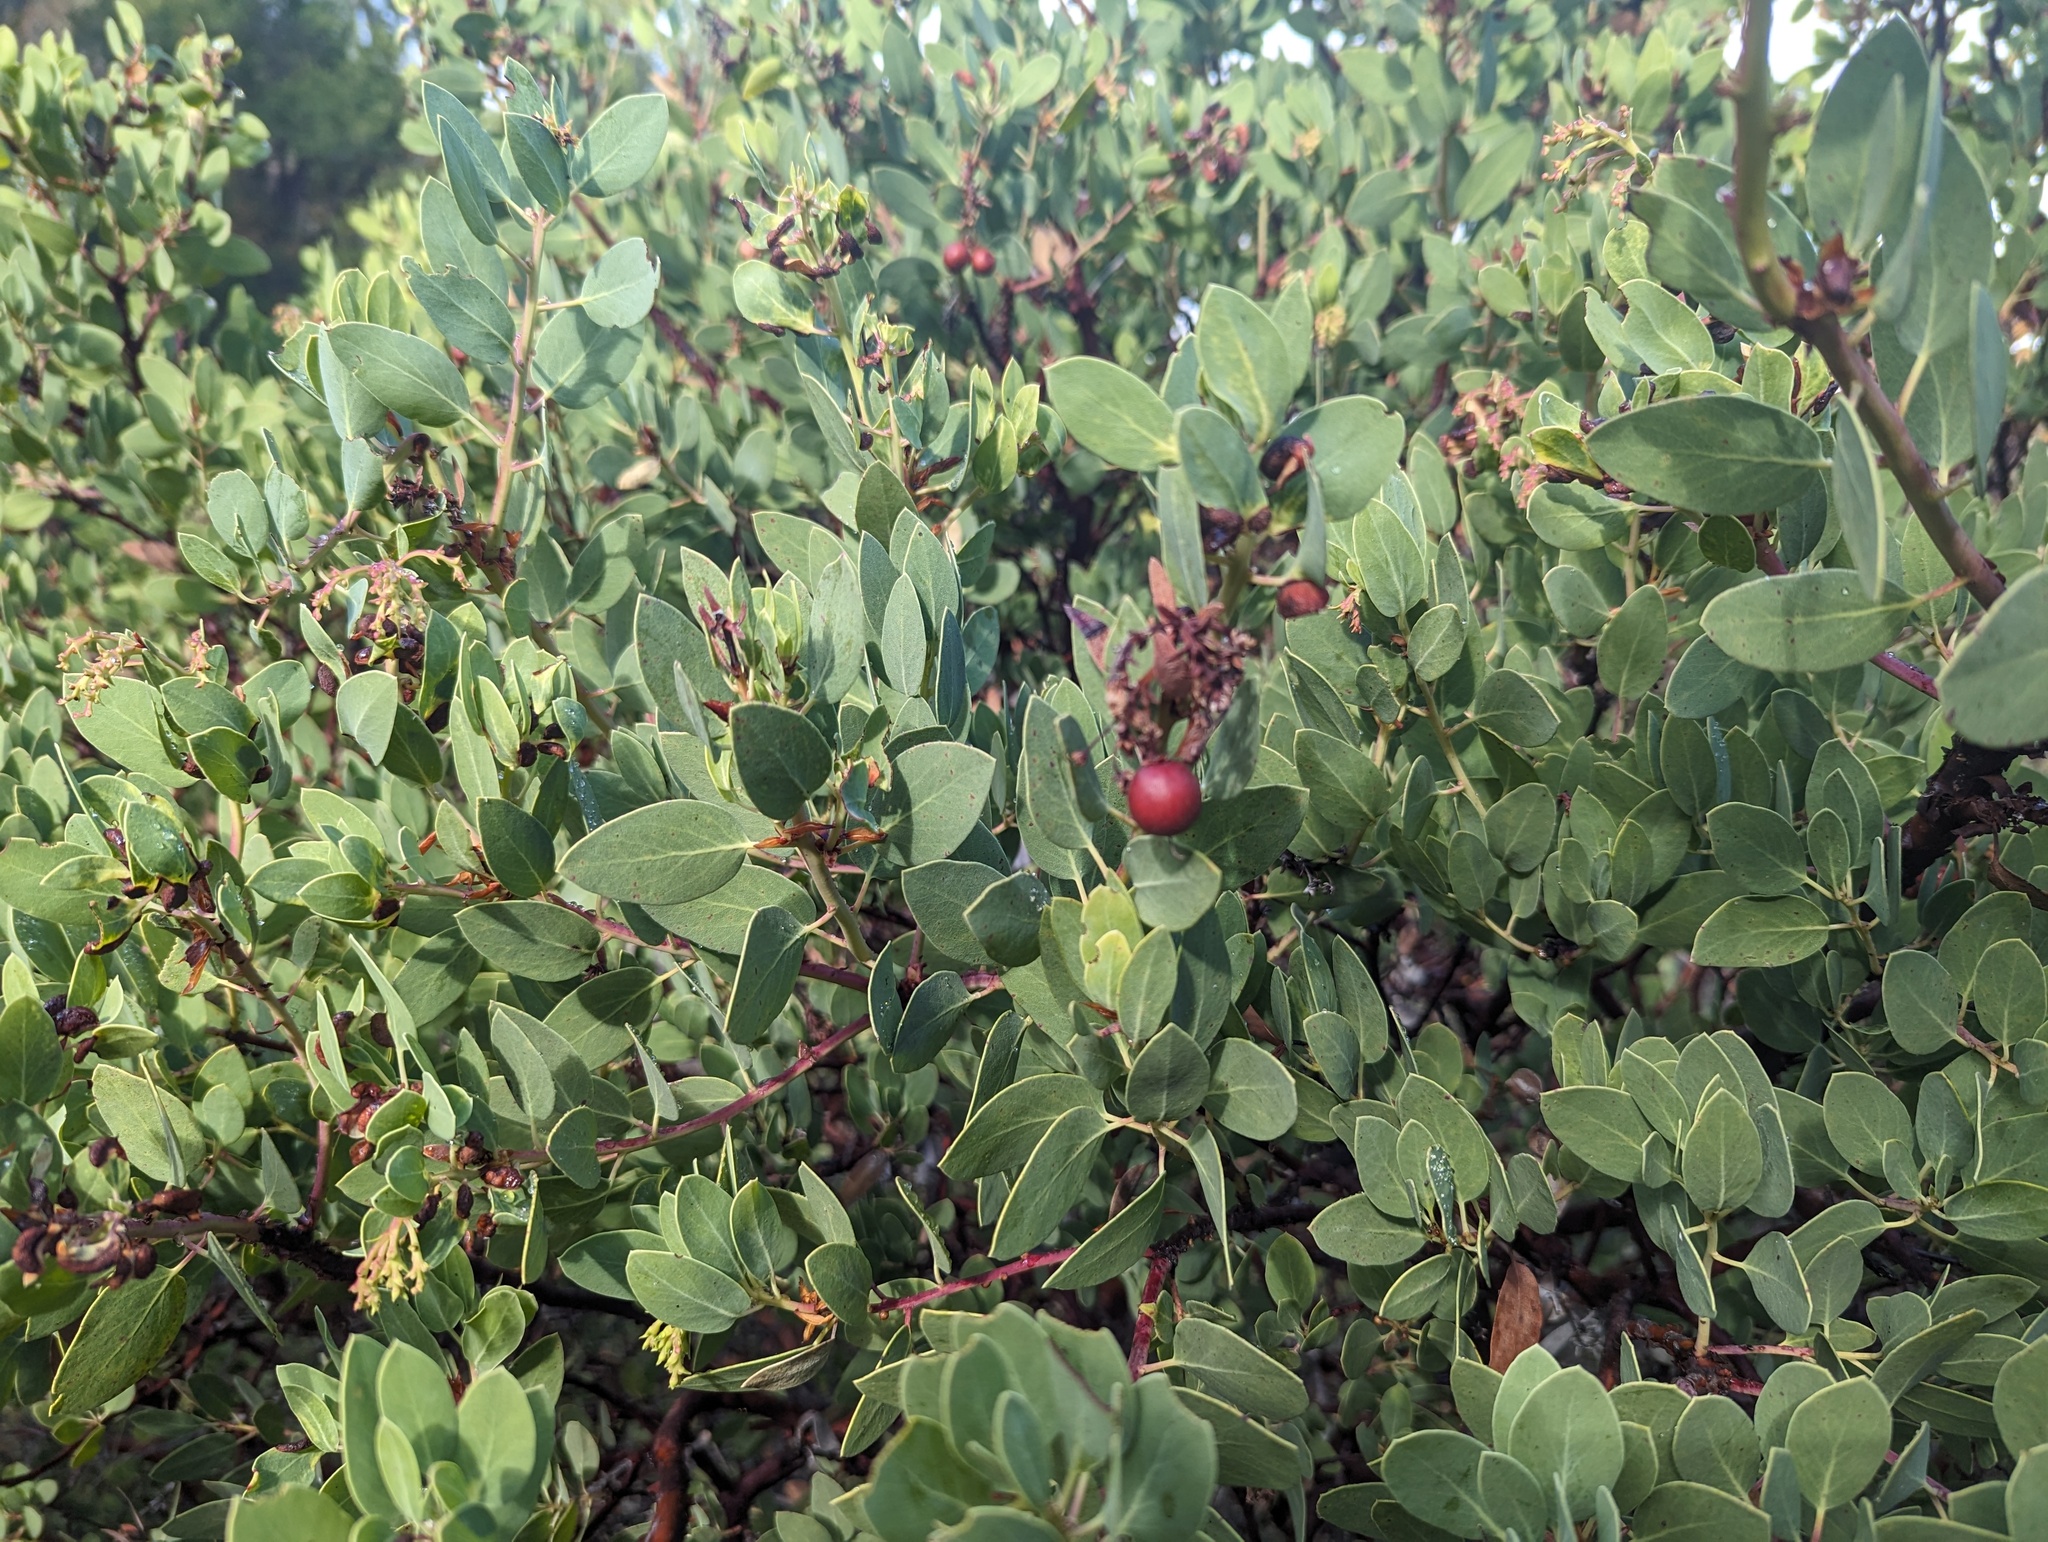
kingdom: Plantae
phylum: Tracheophyta
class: Magnoliopsida
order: Ericales
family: Ericaceae
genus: Arctostaphylos
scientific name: Arctostaphylos glauca
